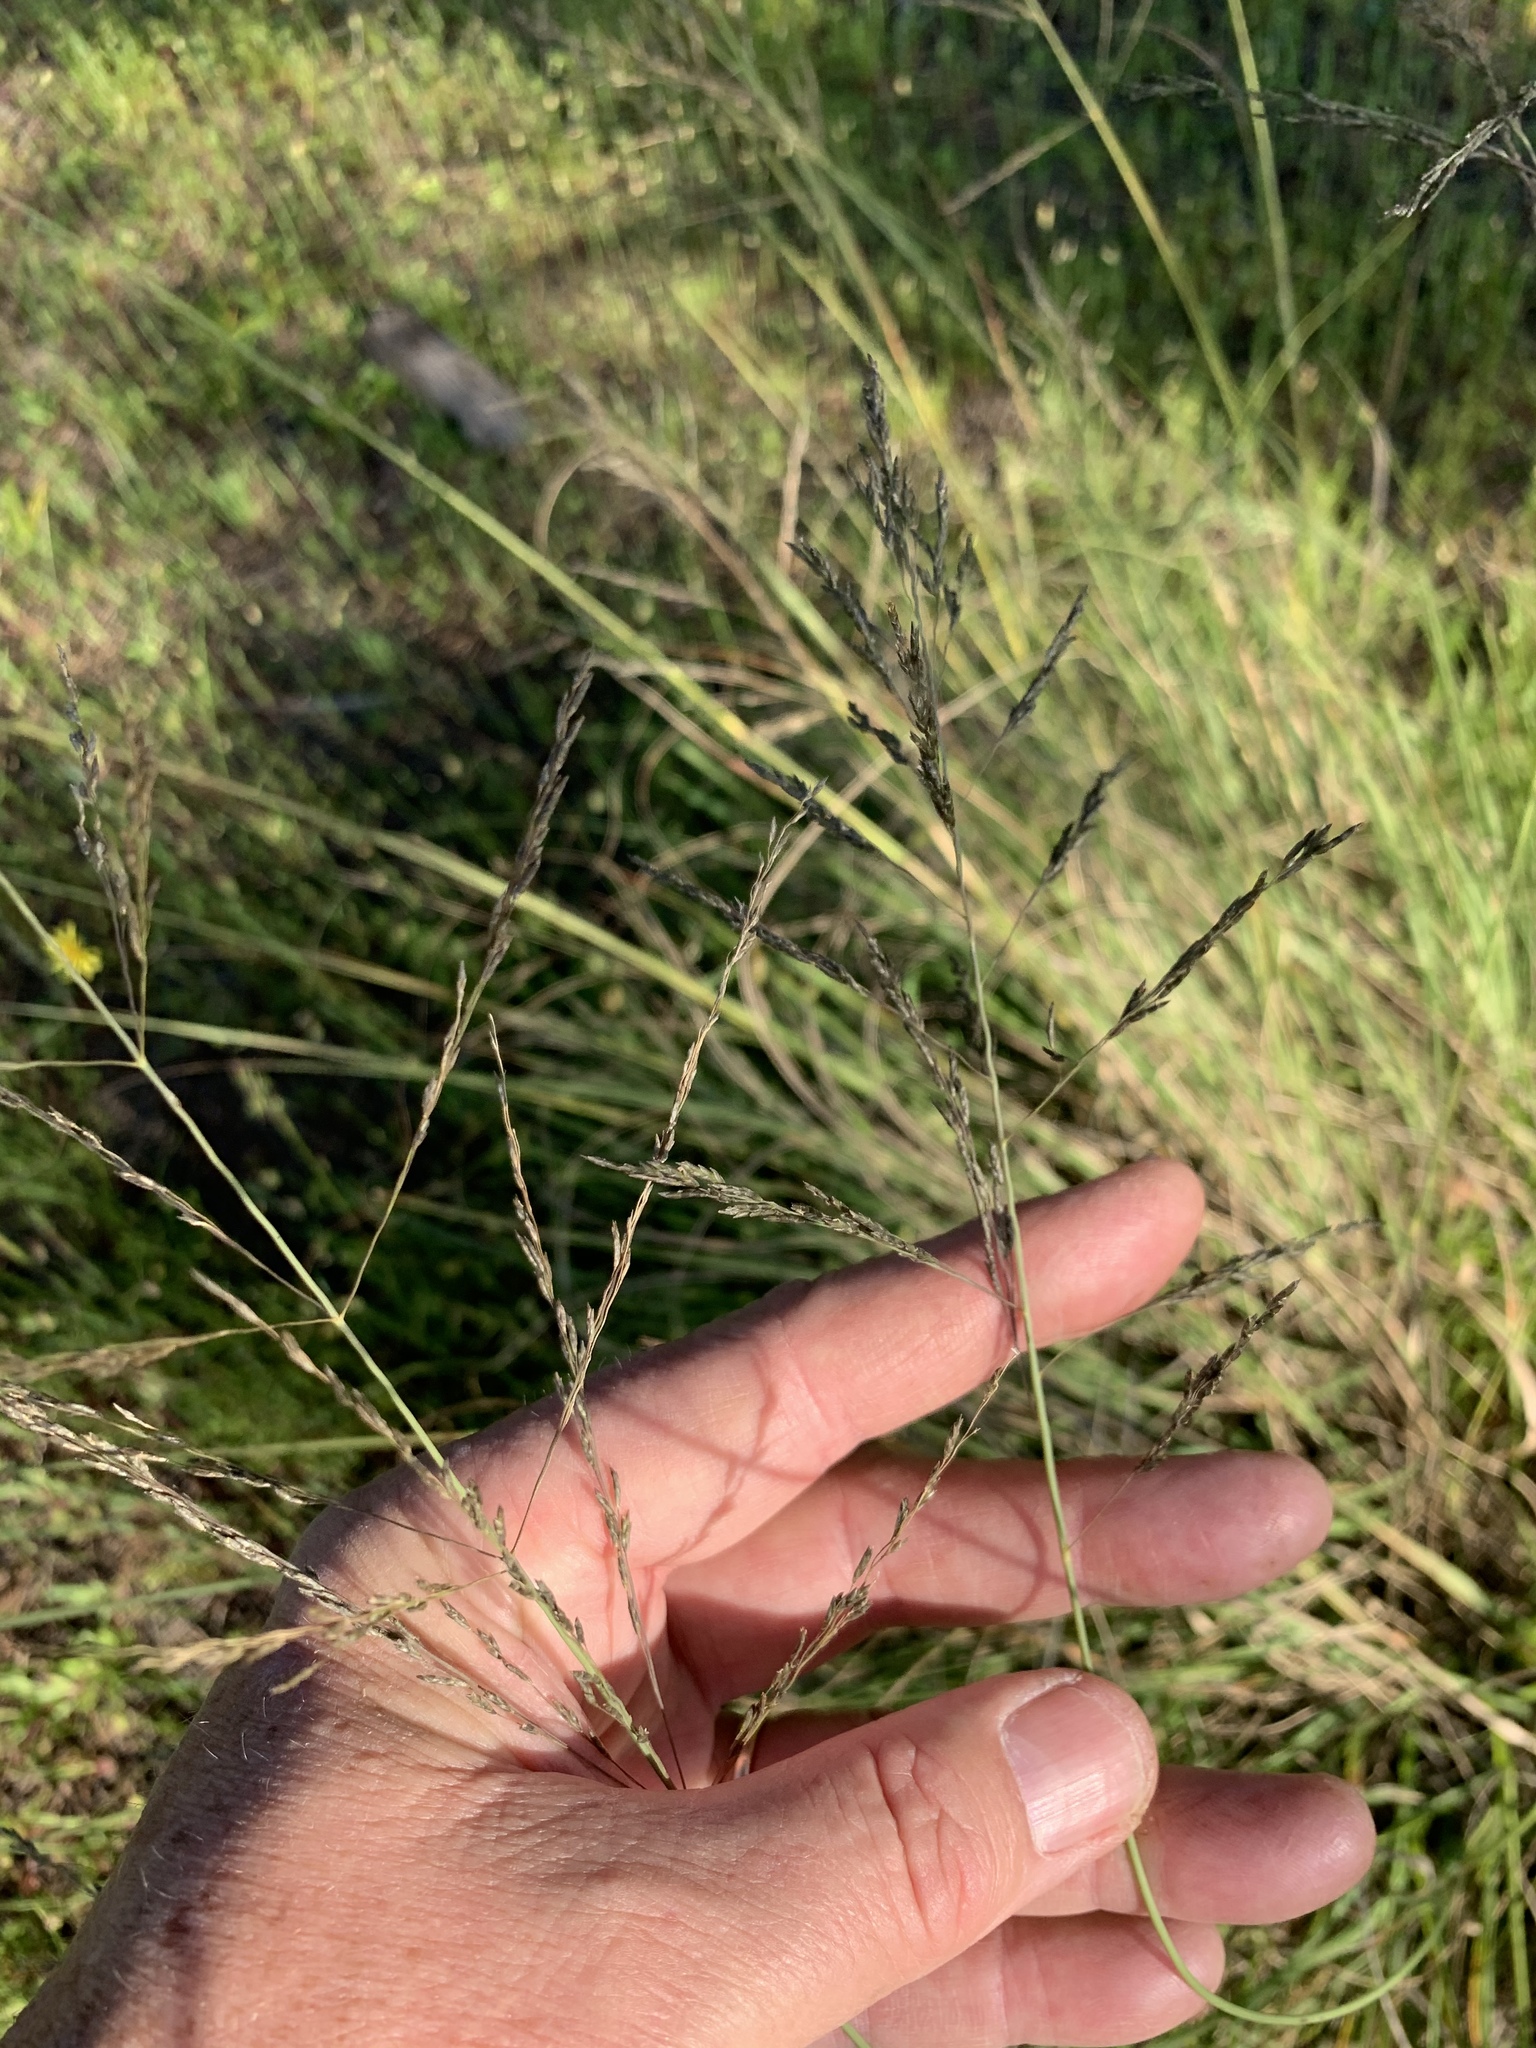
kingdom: Plantae
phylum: Tracheophyta
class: Liliopsida
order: Poales
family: Poaceae
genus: Eragrostis
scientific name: Eragrostis curvula
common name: African love-grass
